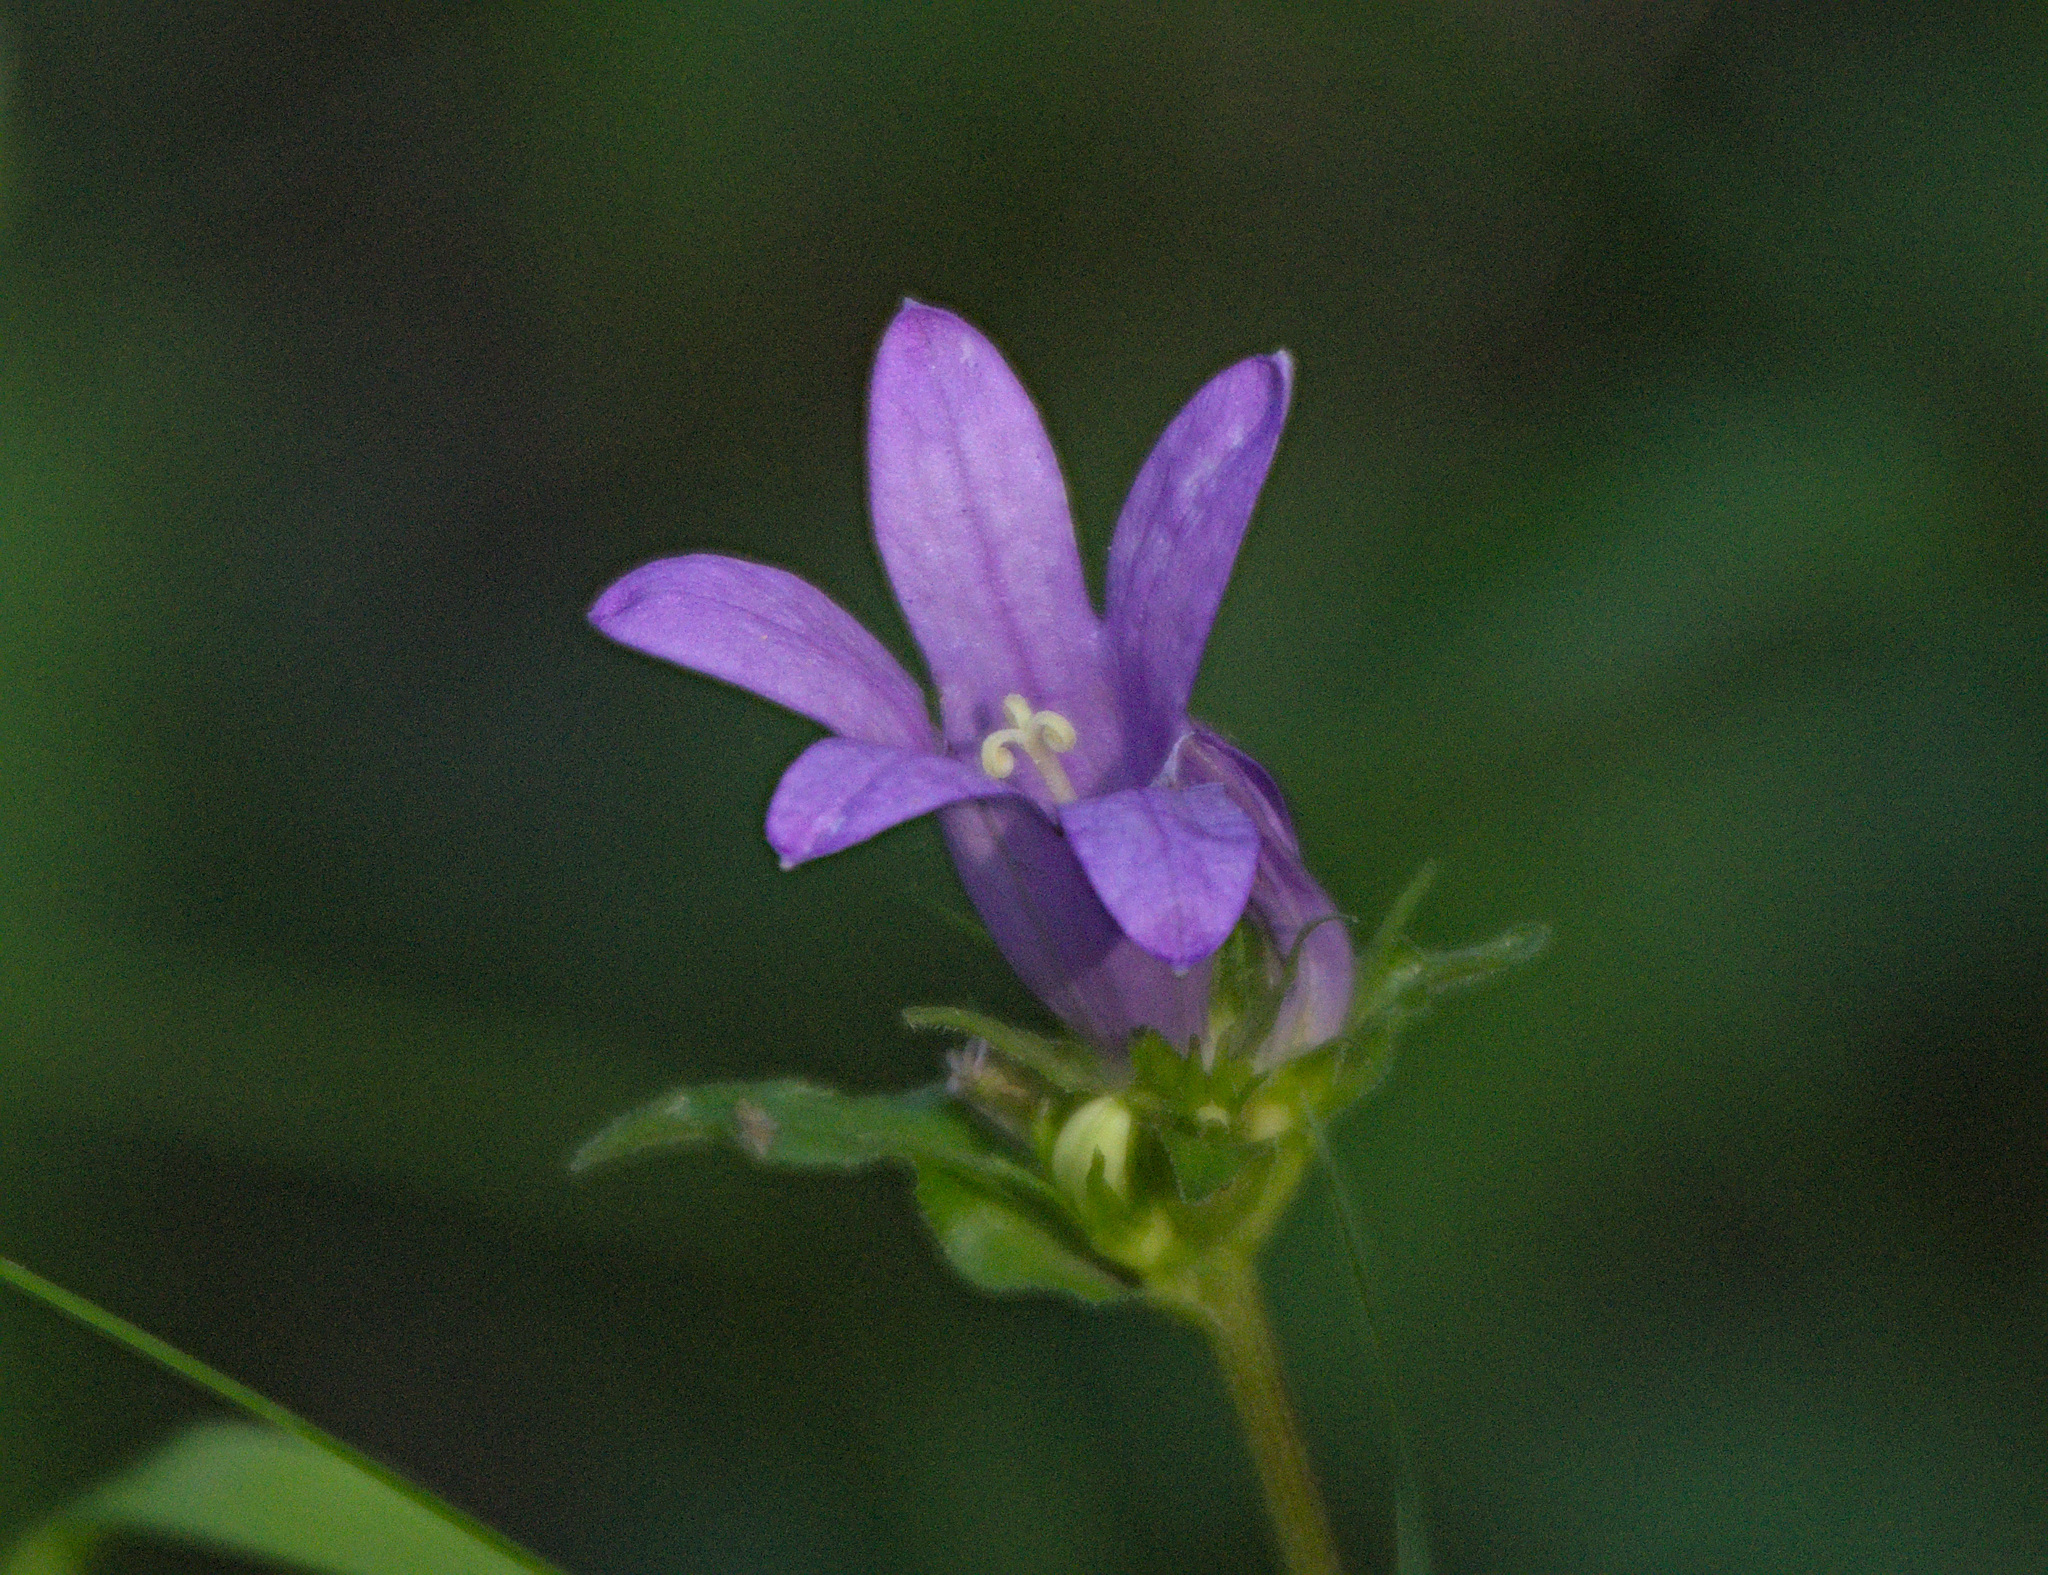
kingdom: Plantae
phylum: Tracheophyta
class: Magnoliopsida
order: Asterales
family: Campanulaceae
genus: Campanula
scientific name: Campanula glomerata
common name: Clustered bellflower
